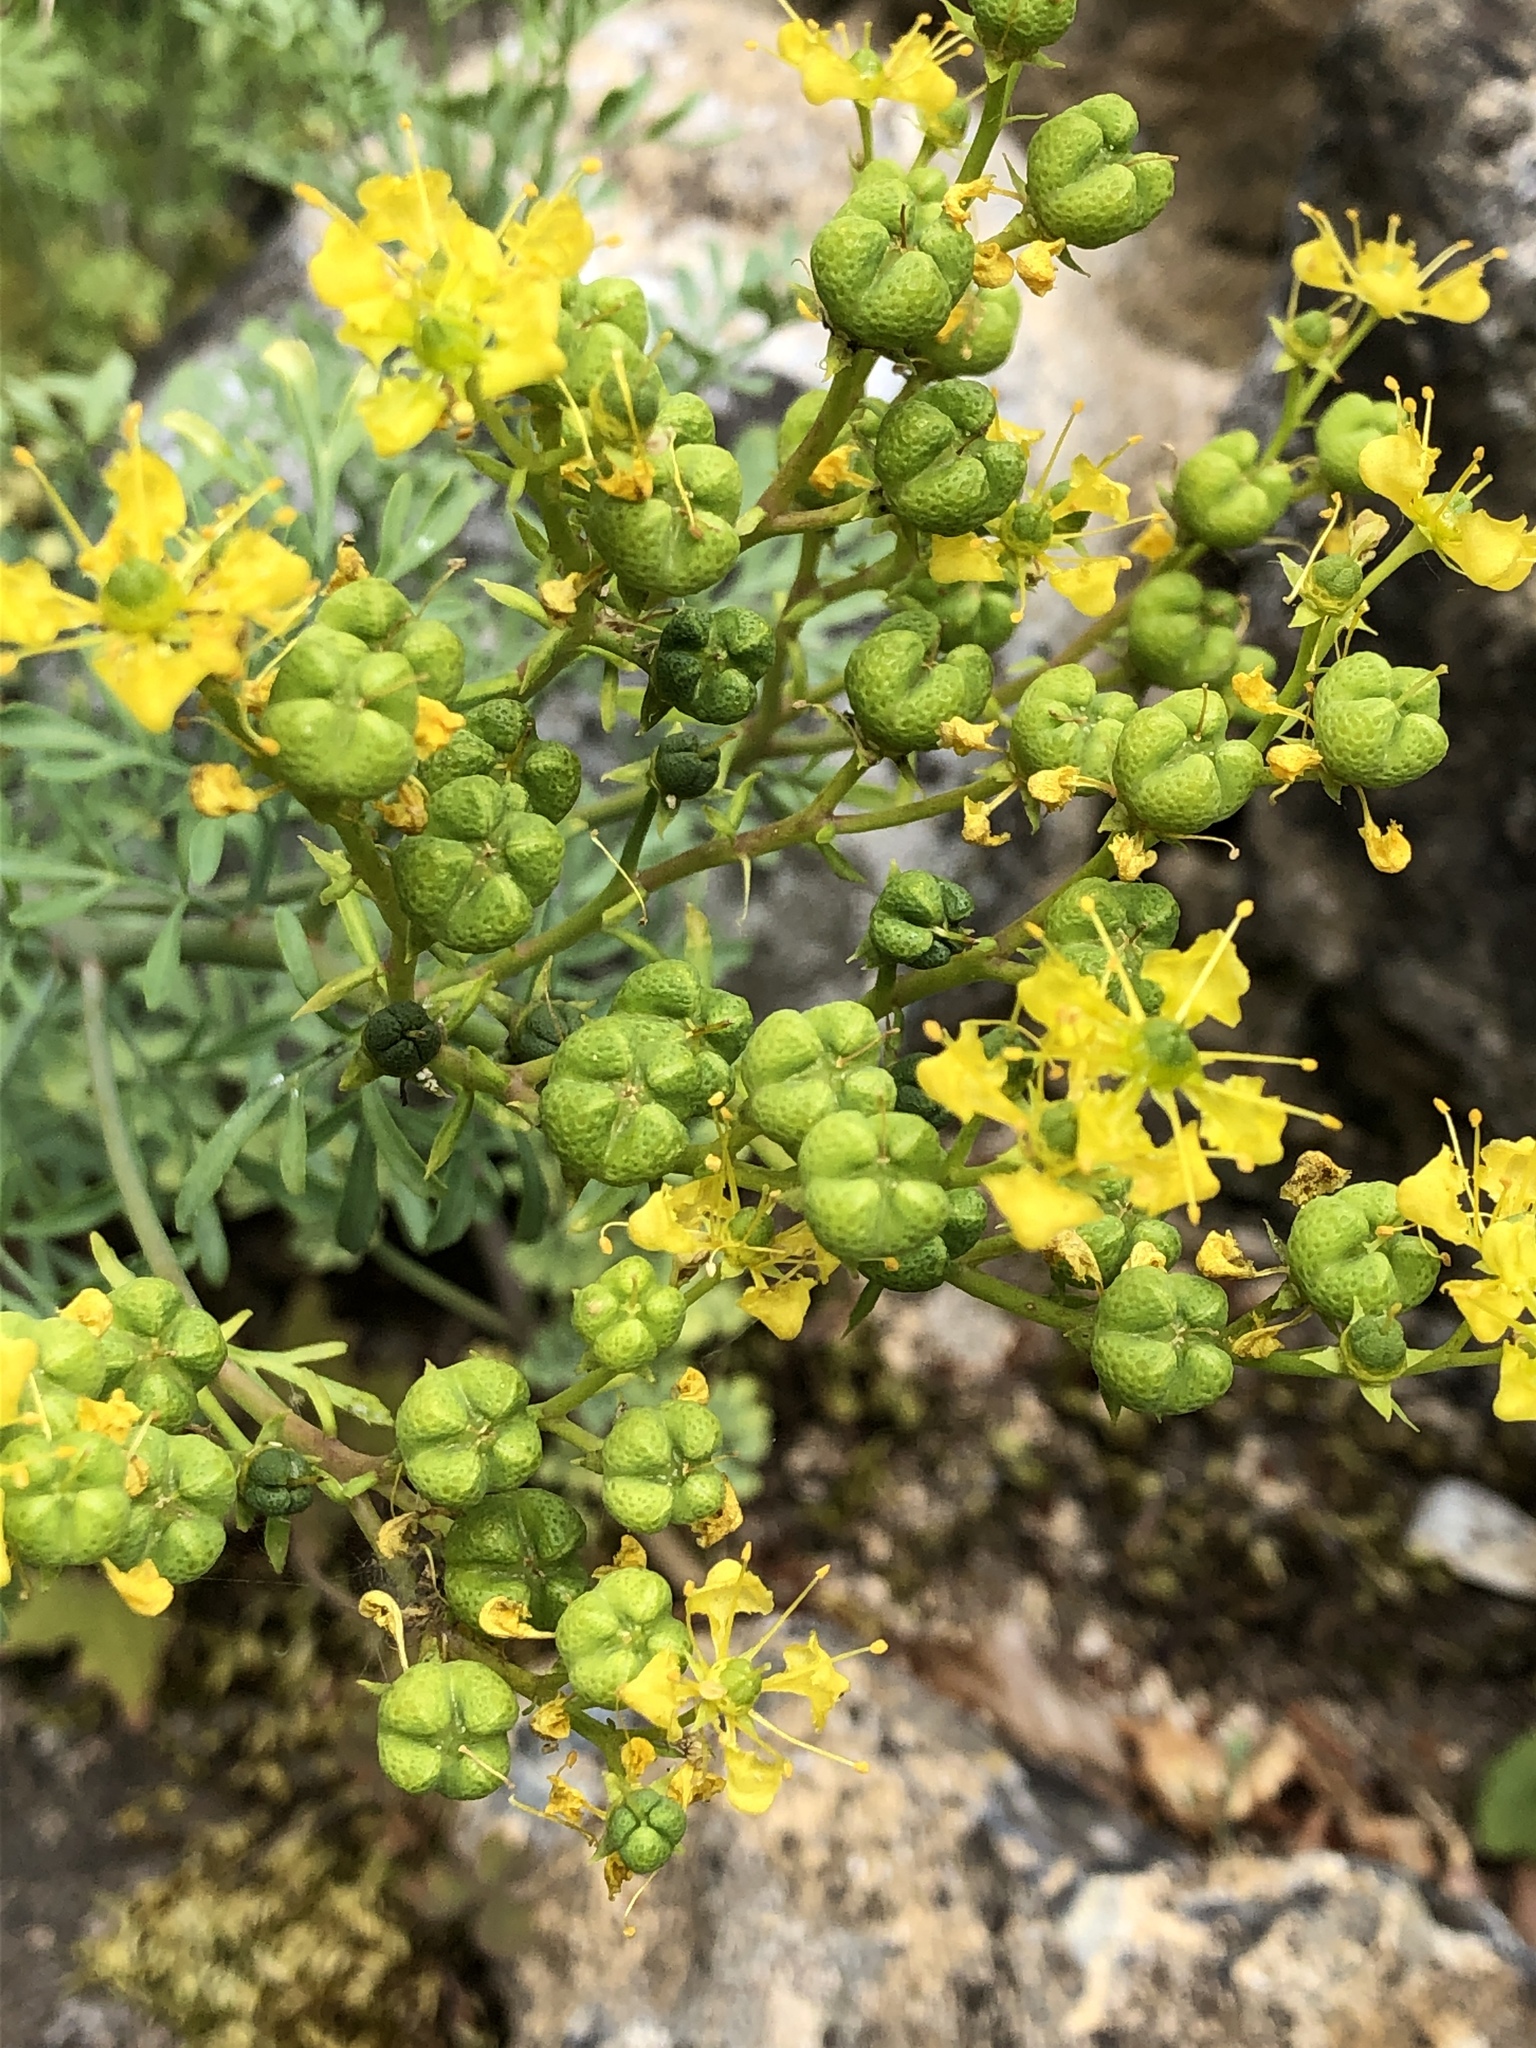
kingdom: Plantae
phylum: Tracheophyta
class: Magnoliopsida
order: Sapindales
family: Rutaceae
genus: Ruta
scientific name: Ruta graveolens
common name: Common rue
